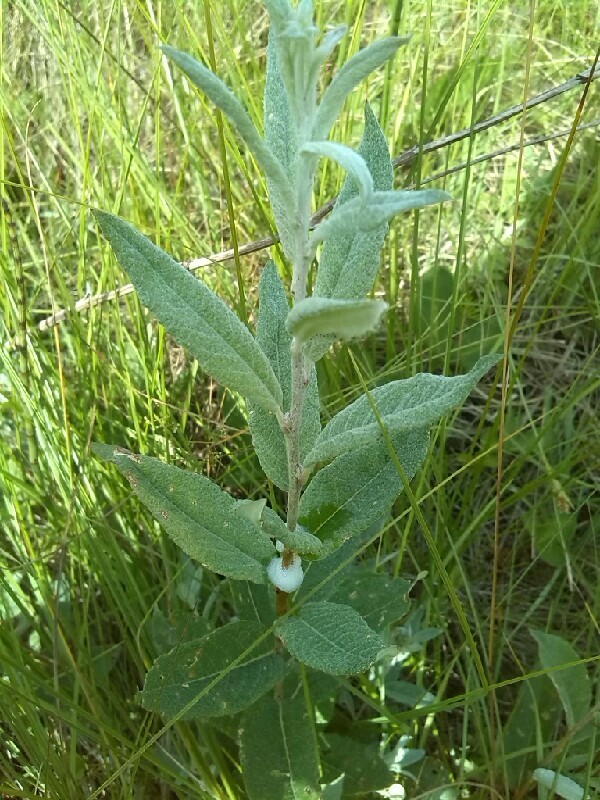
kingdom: Plantae
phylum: Tracheophyta
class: Magnoliopsida
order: Malpighiales
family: Salicaceae
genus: Salix
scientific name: Salix lapponum
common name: Downy willow
